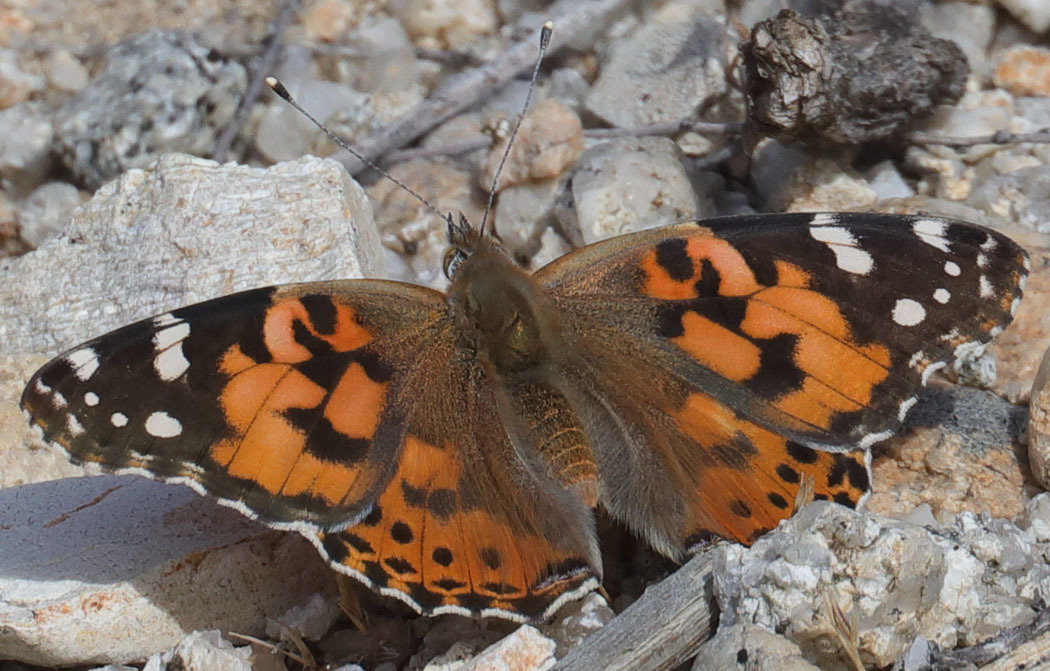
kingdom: Animalia
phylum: Arthropoda
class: Insecta
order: Lepidoptera
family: Nymphalidae
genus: Vanessa
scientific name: Vanessa cardui
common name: Painted lady
